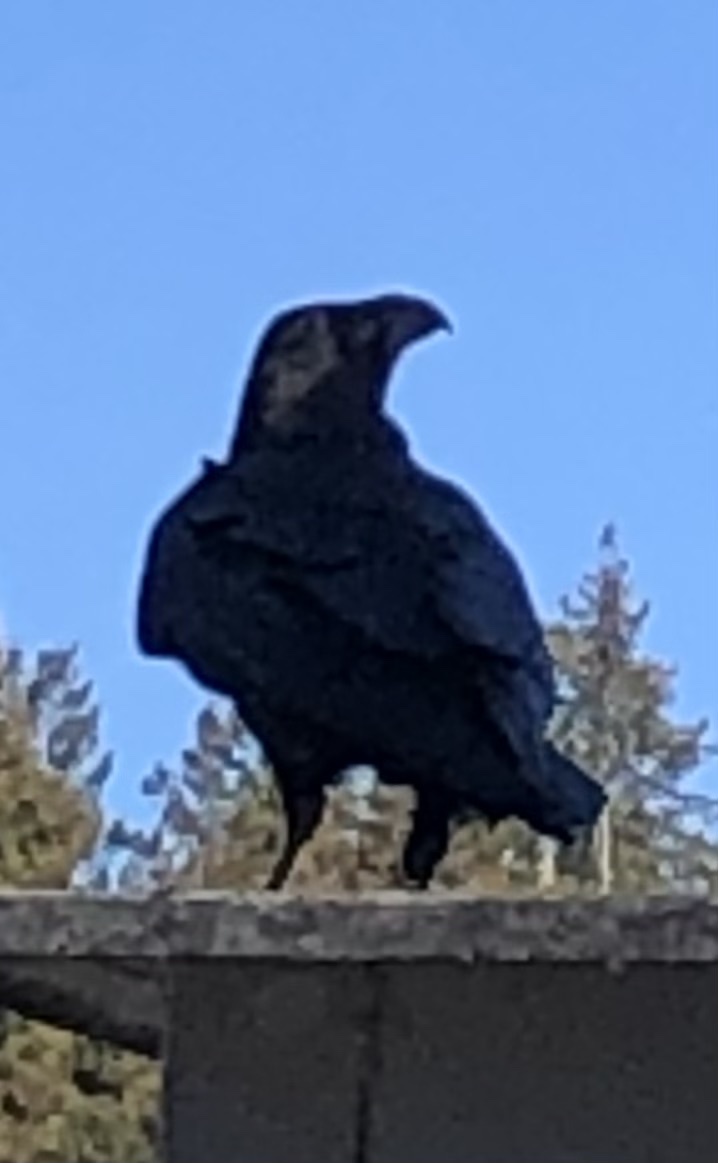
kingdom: Animalia
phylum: Chordata
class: Aves
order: Passeriformes
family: Corvidae
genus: Corvus
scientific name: Corvus corax
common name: Common raven
